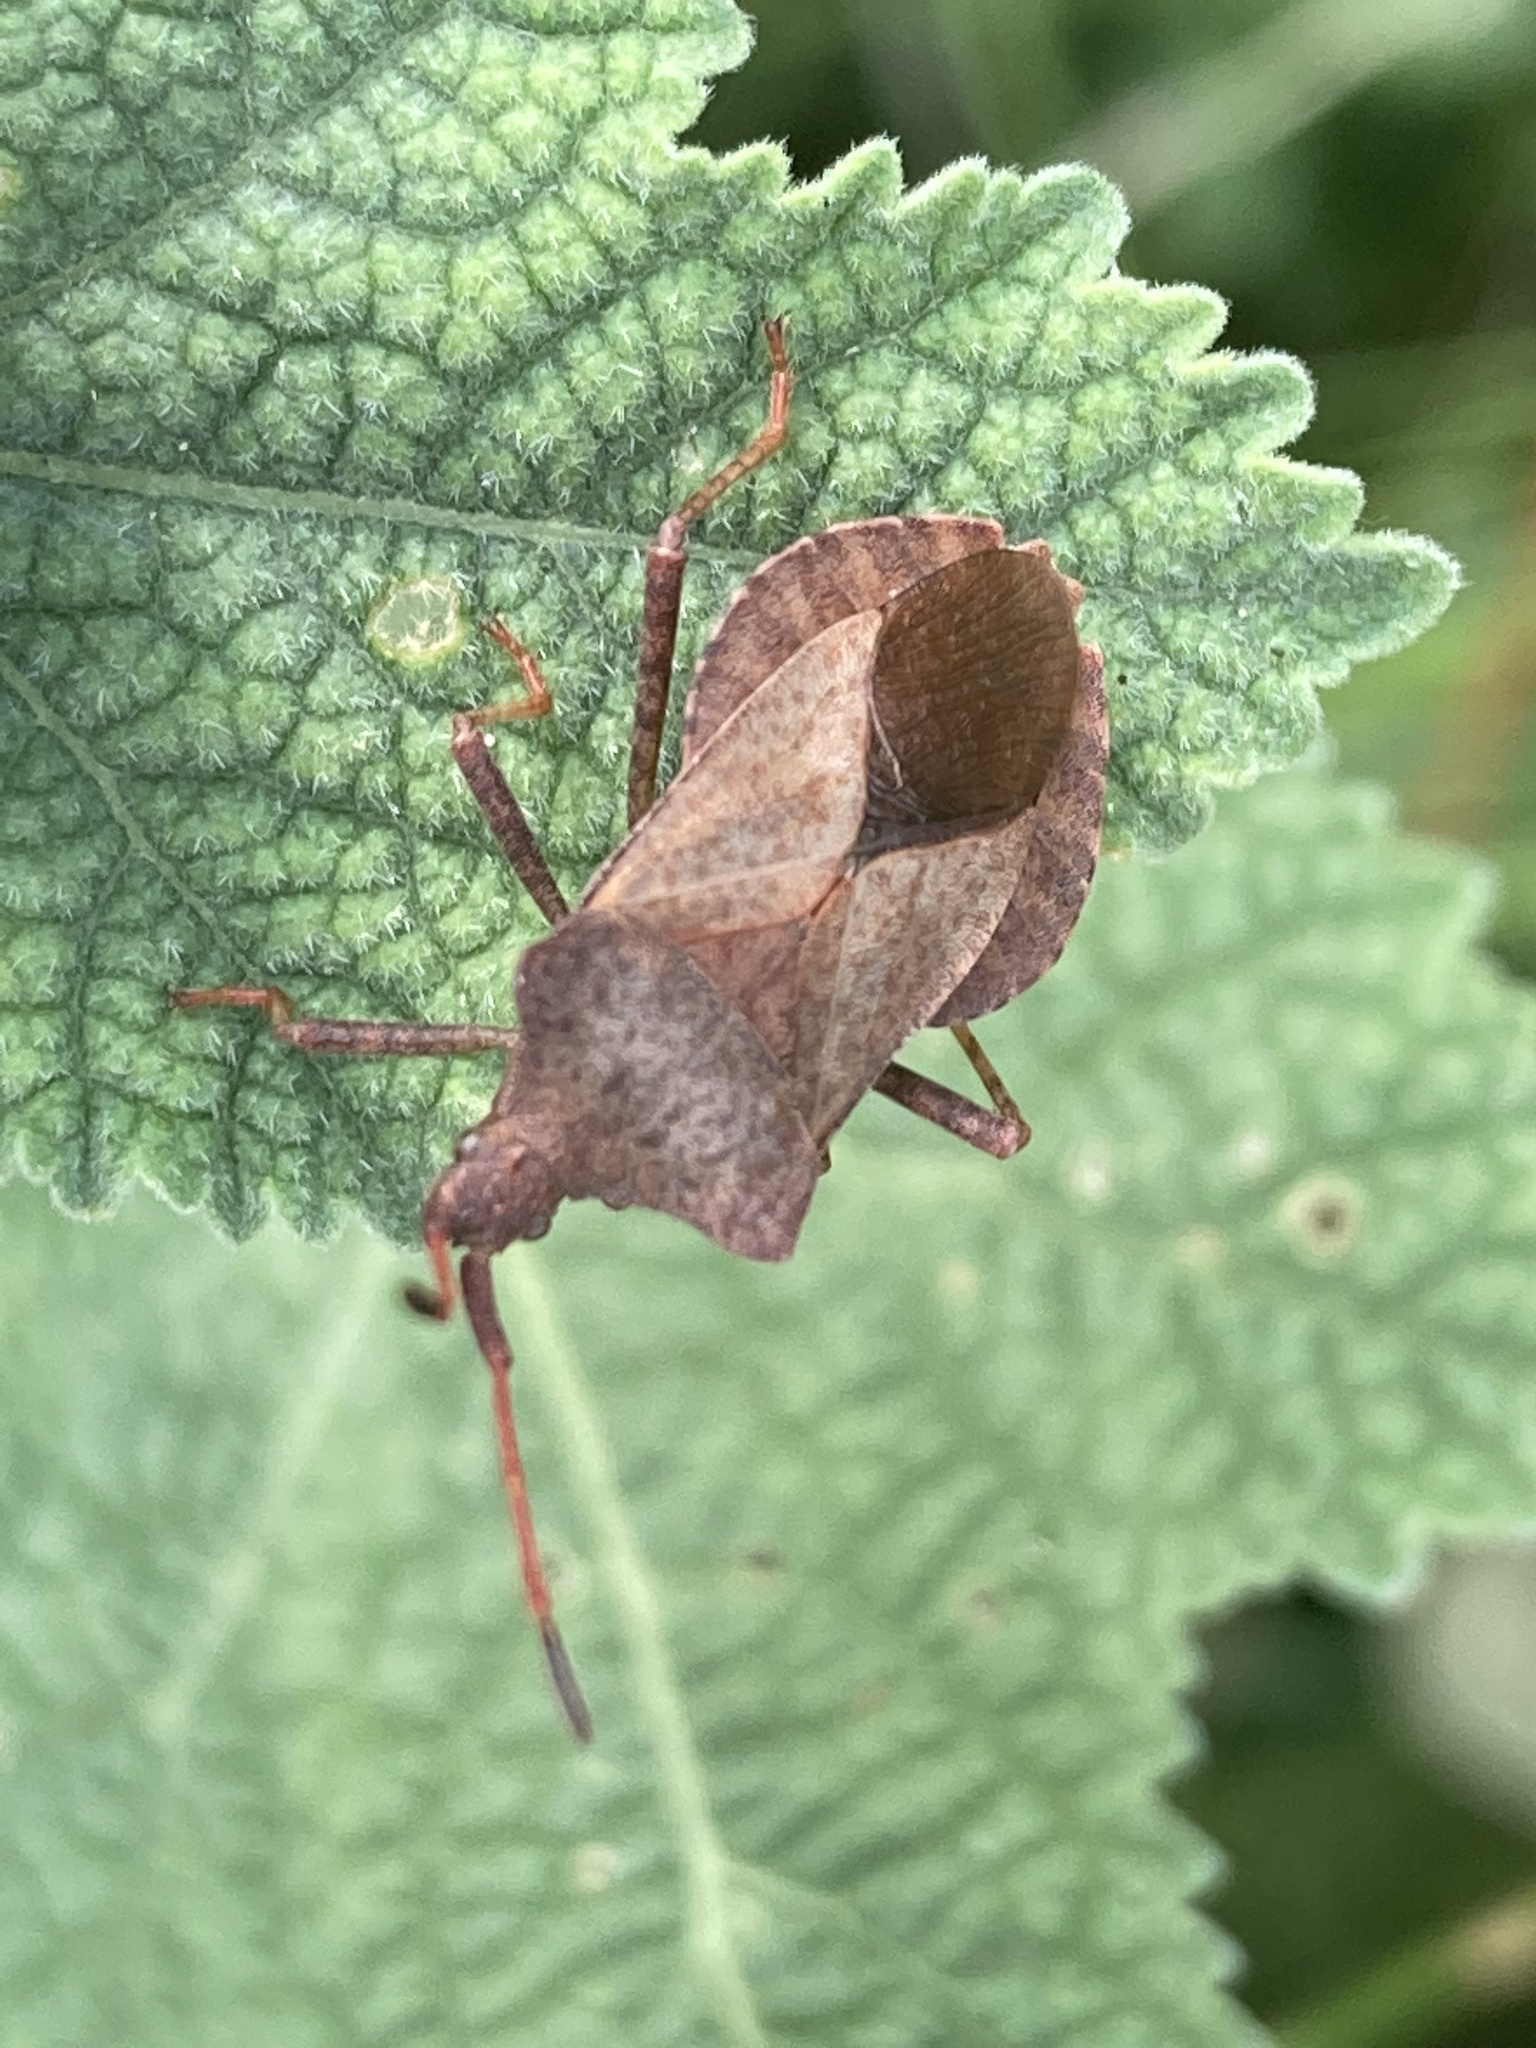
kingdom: Animalia
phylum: Arthropoda
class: Insecta
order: Hemiptera
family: Coreidae
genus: Coreus
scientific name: Coreus marginatus
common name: Dock bug
